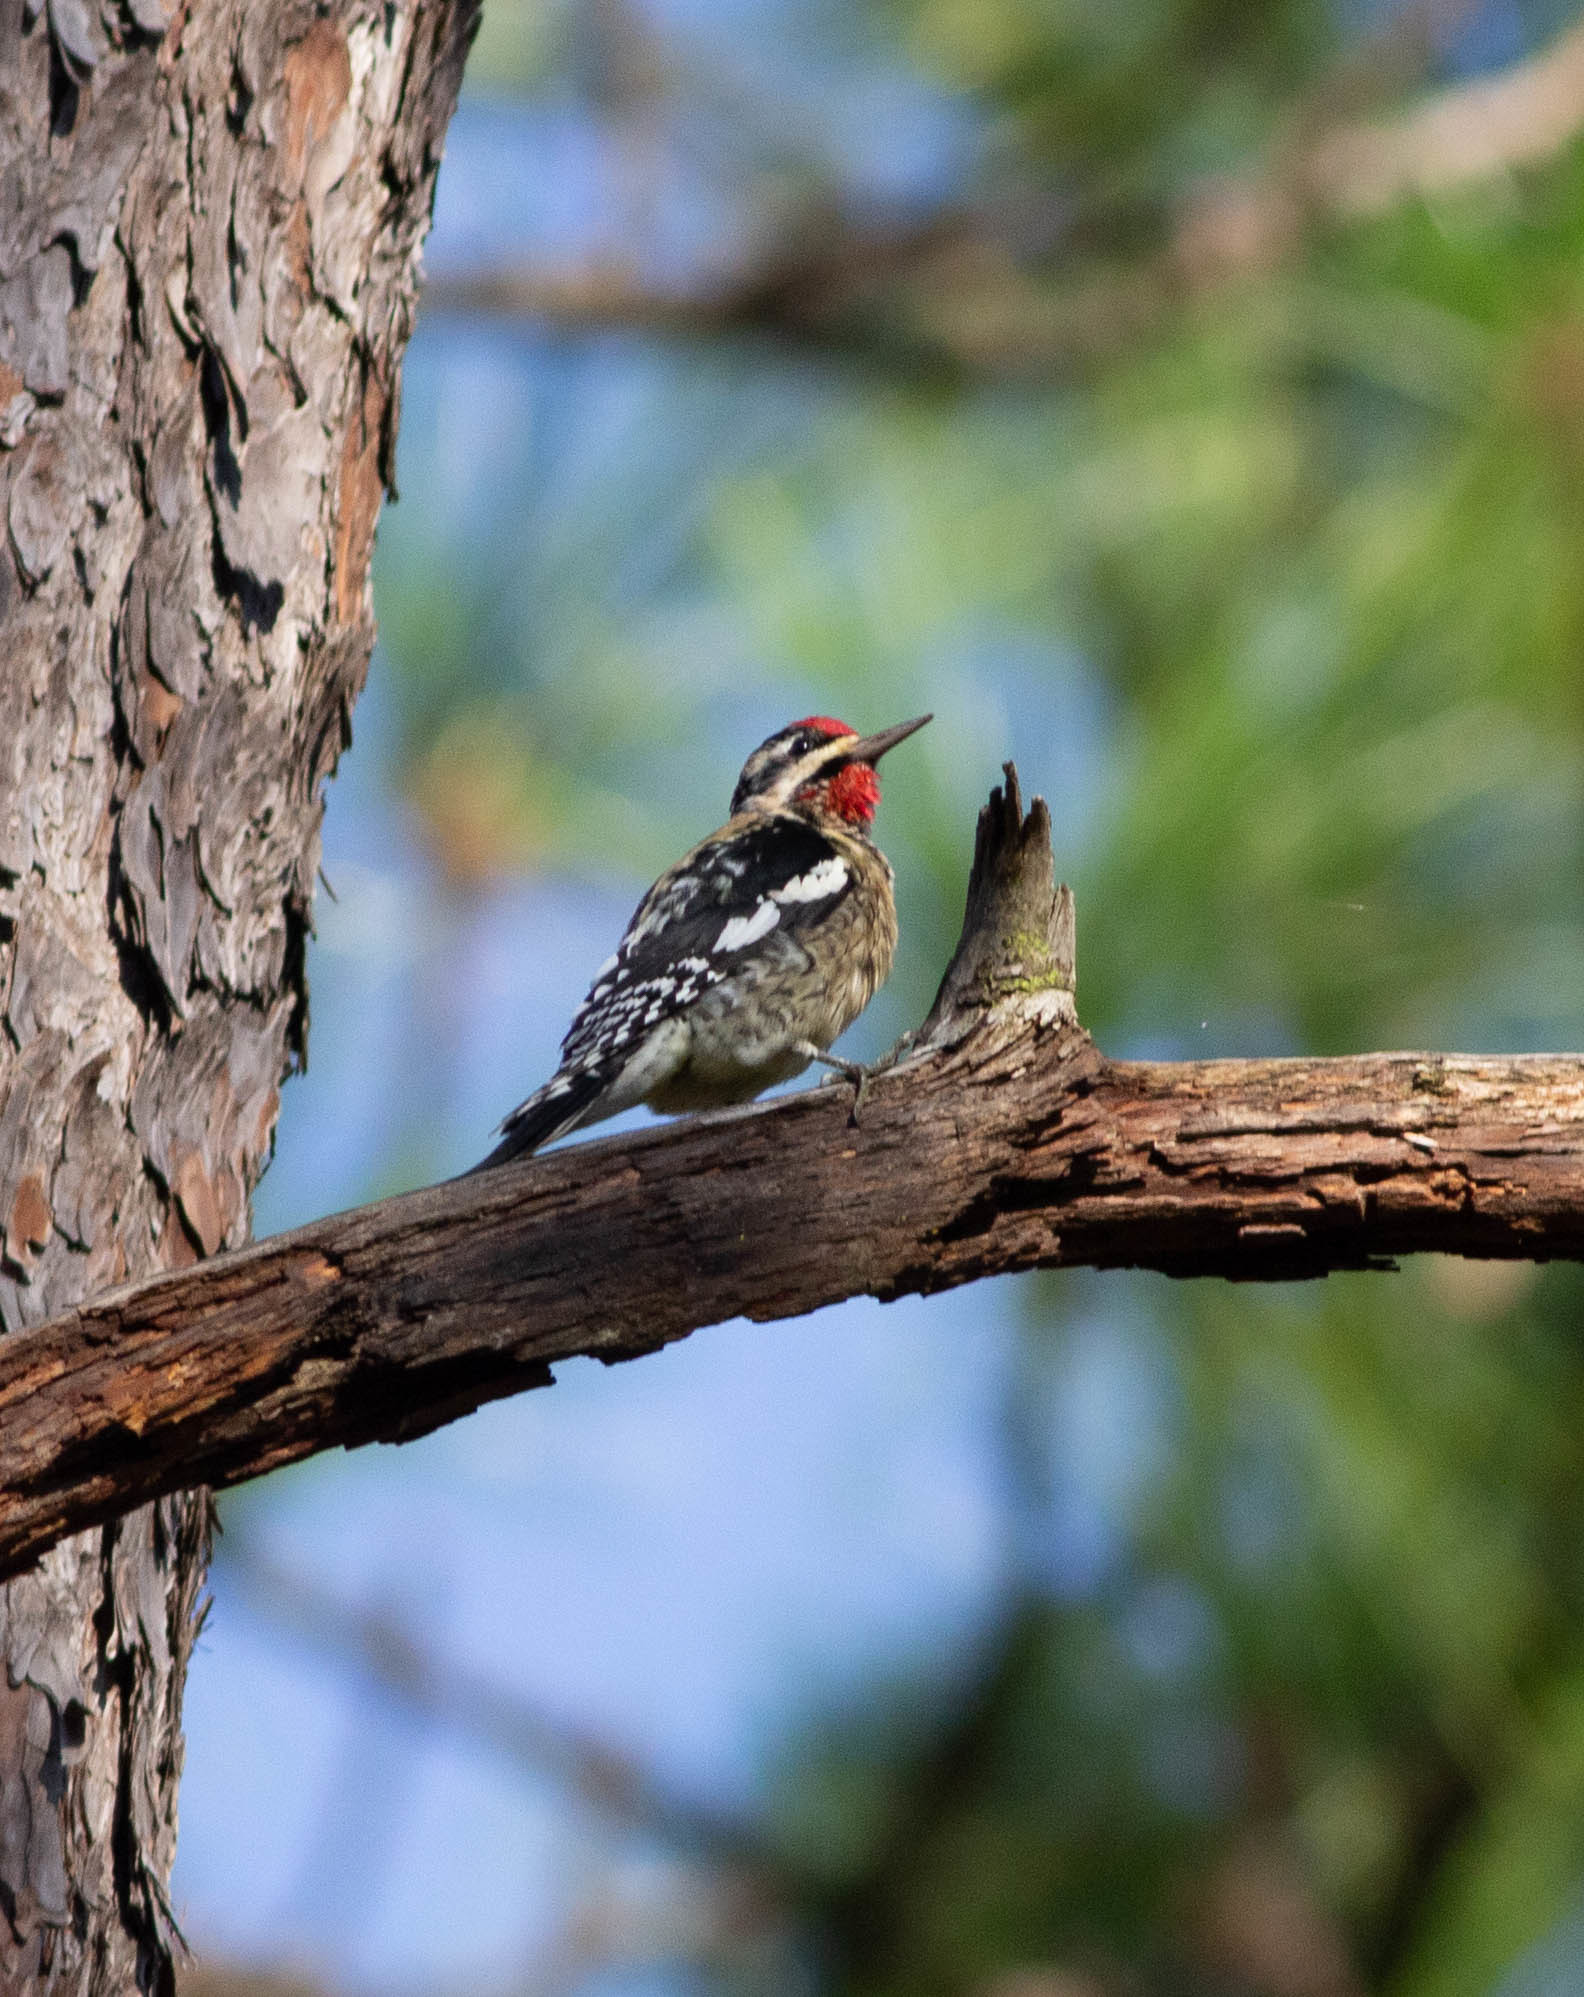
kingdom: Animalia
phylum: Chordata
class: Aves
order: Piciformes
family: Picidae
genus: Sphyrapicus
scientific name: Sphyrapicus varius
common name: Yellow-bellied sapsucker
